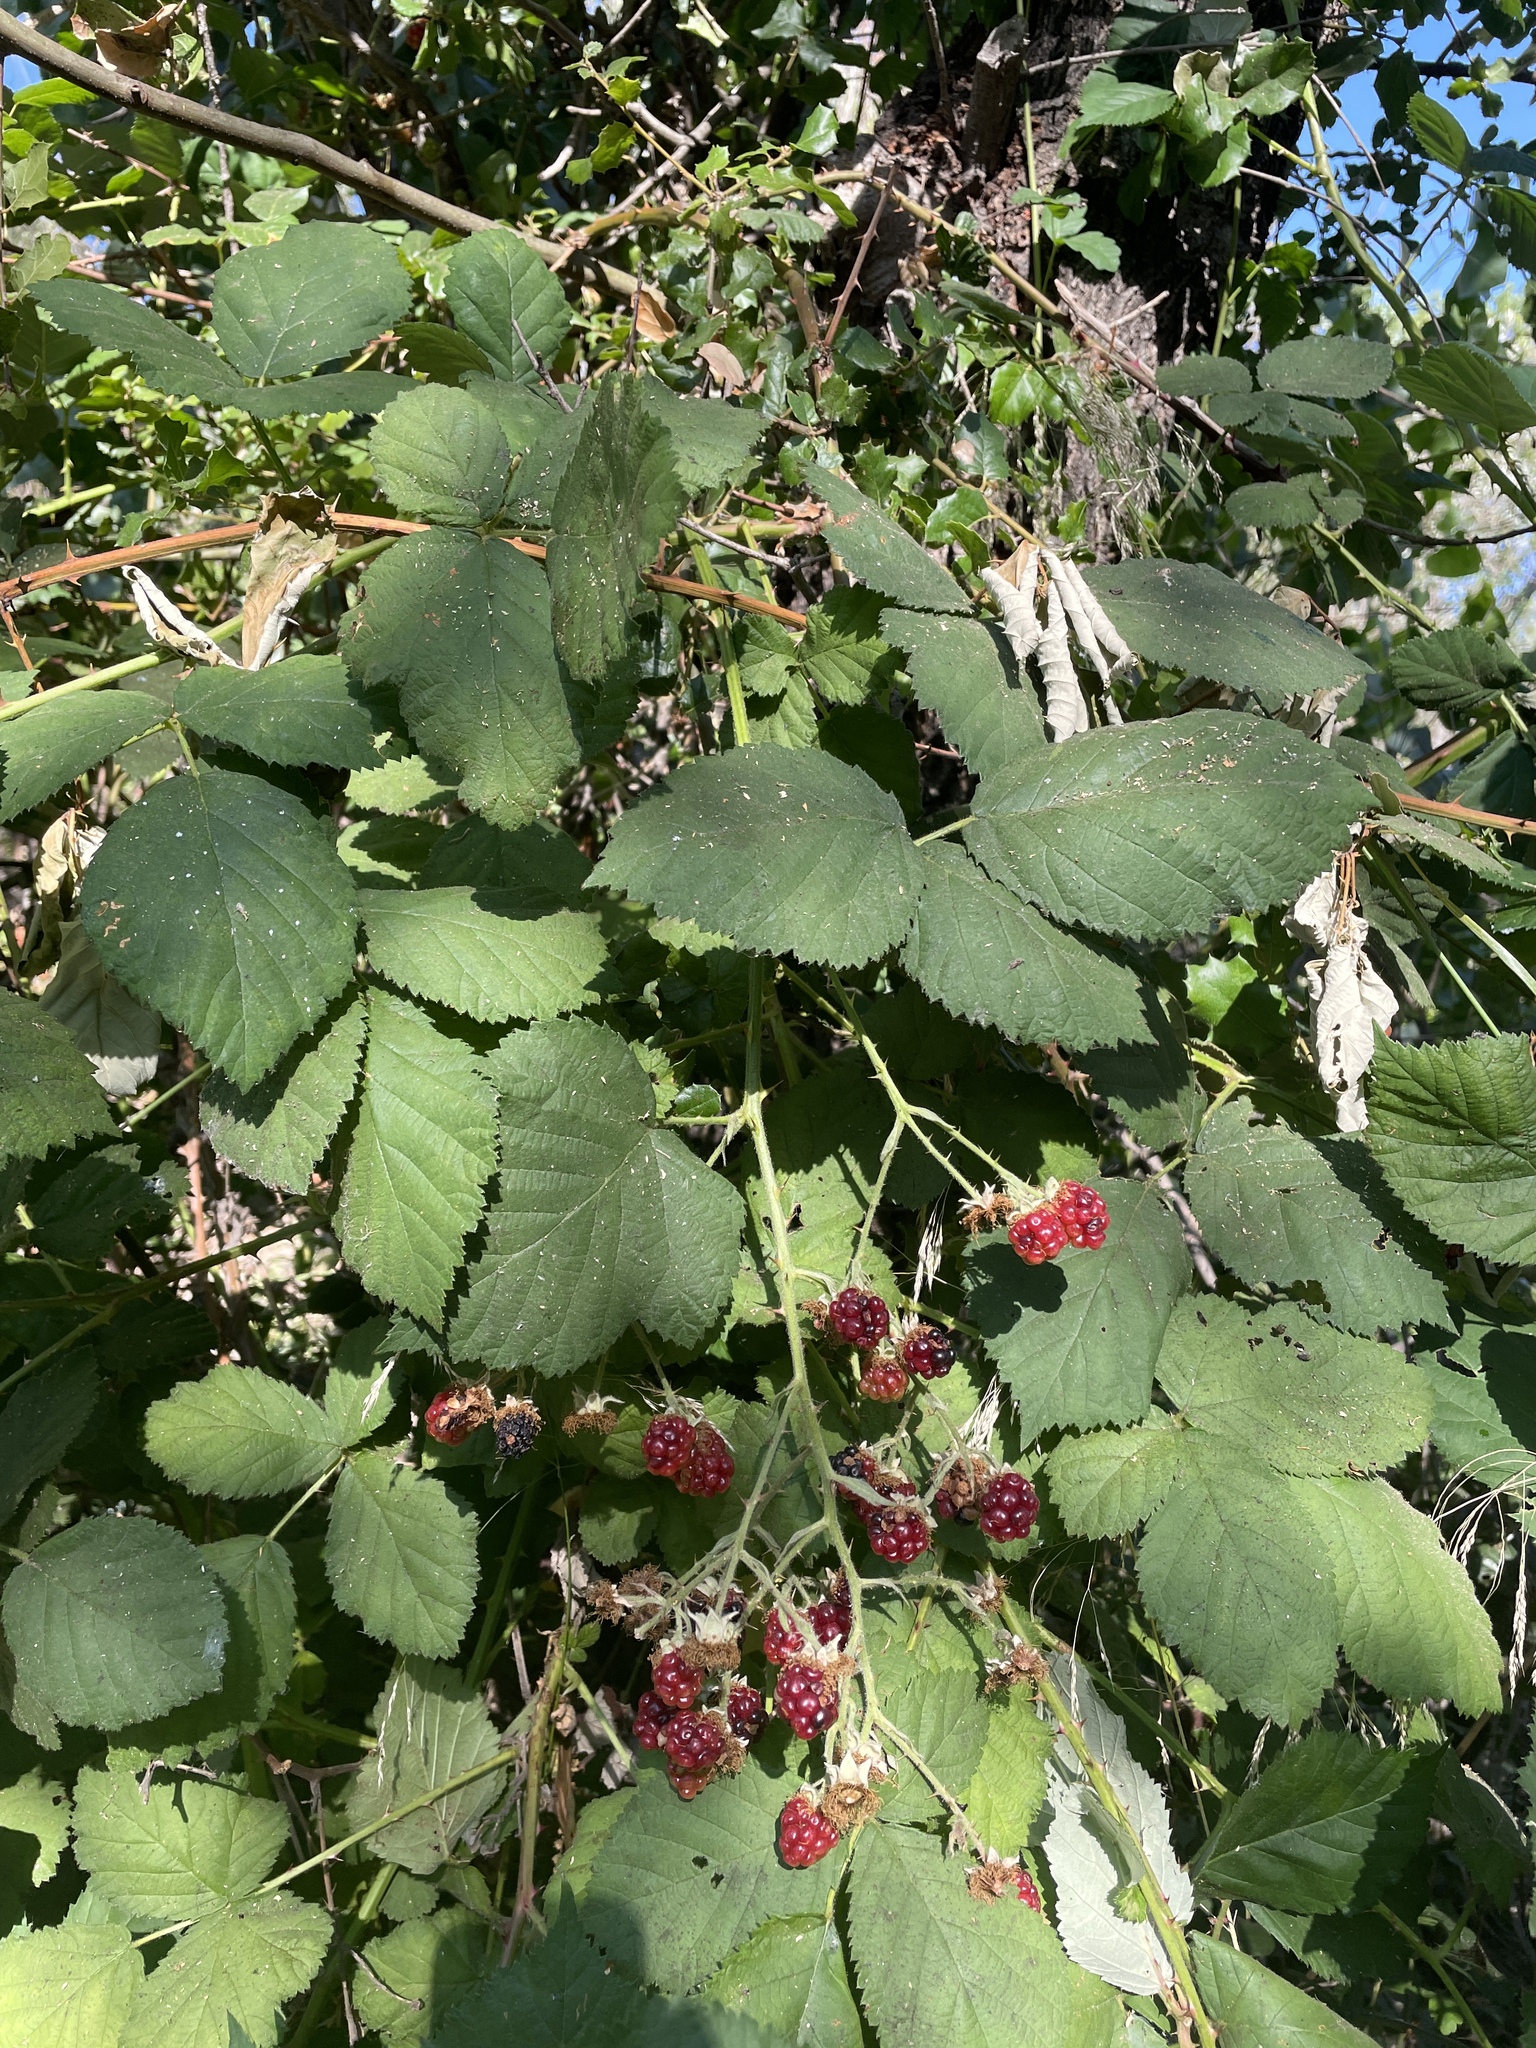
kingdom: Plantae
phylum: Tracheophyta
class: Magnoliopsida
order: Rosales
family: Rosaceae
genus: Rubus
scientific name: Rubus armeniacus
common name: Himalayan blackberry
